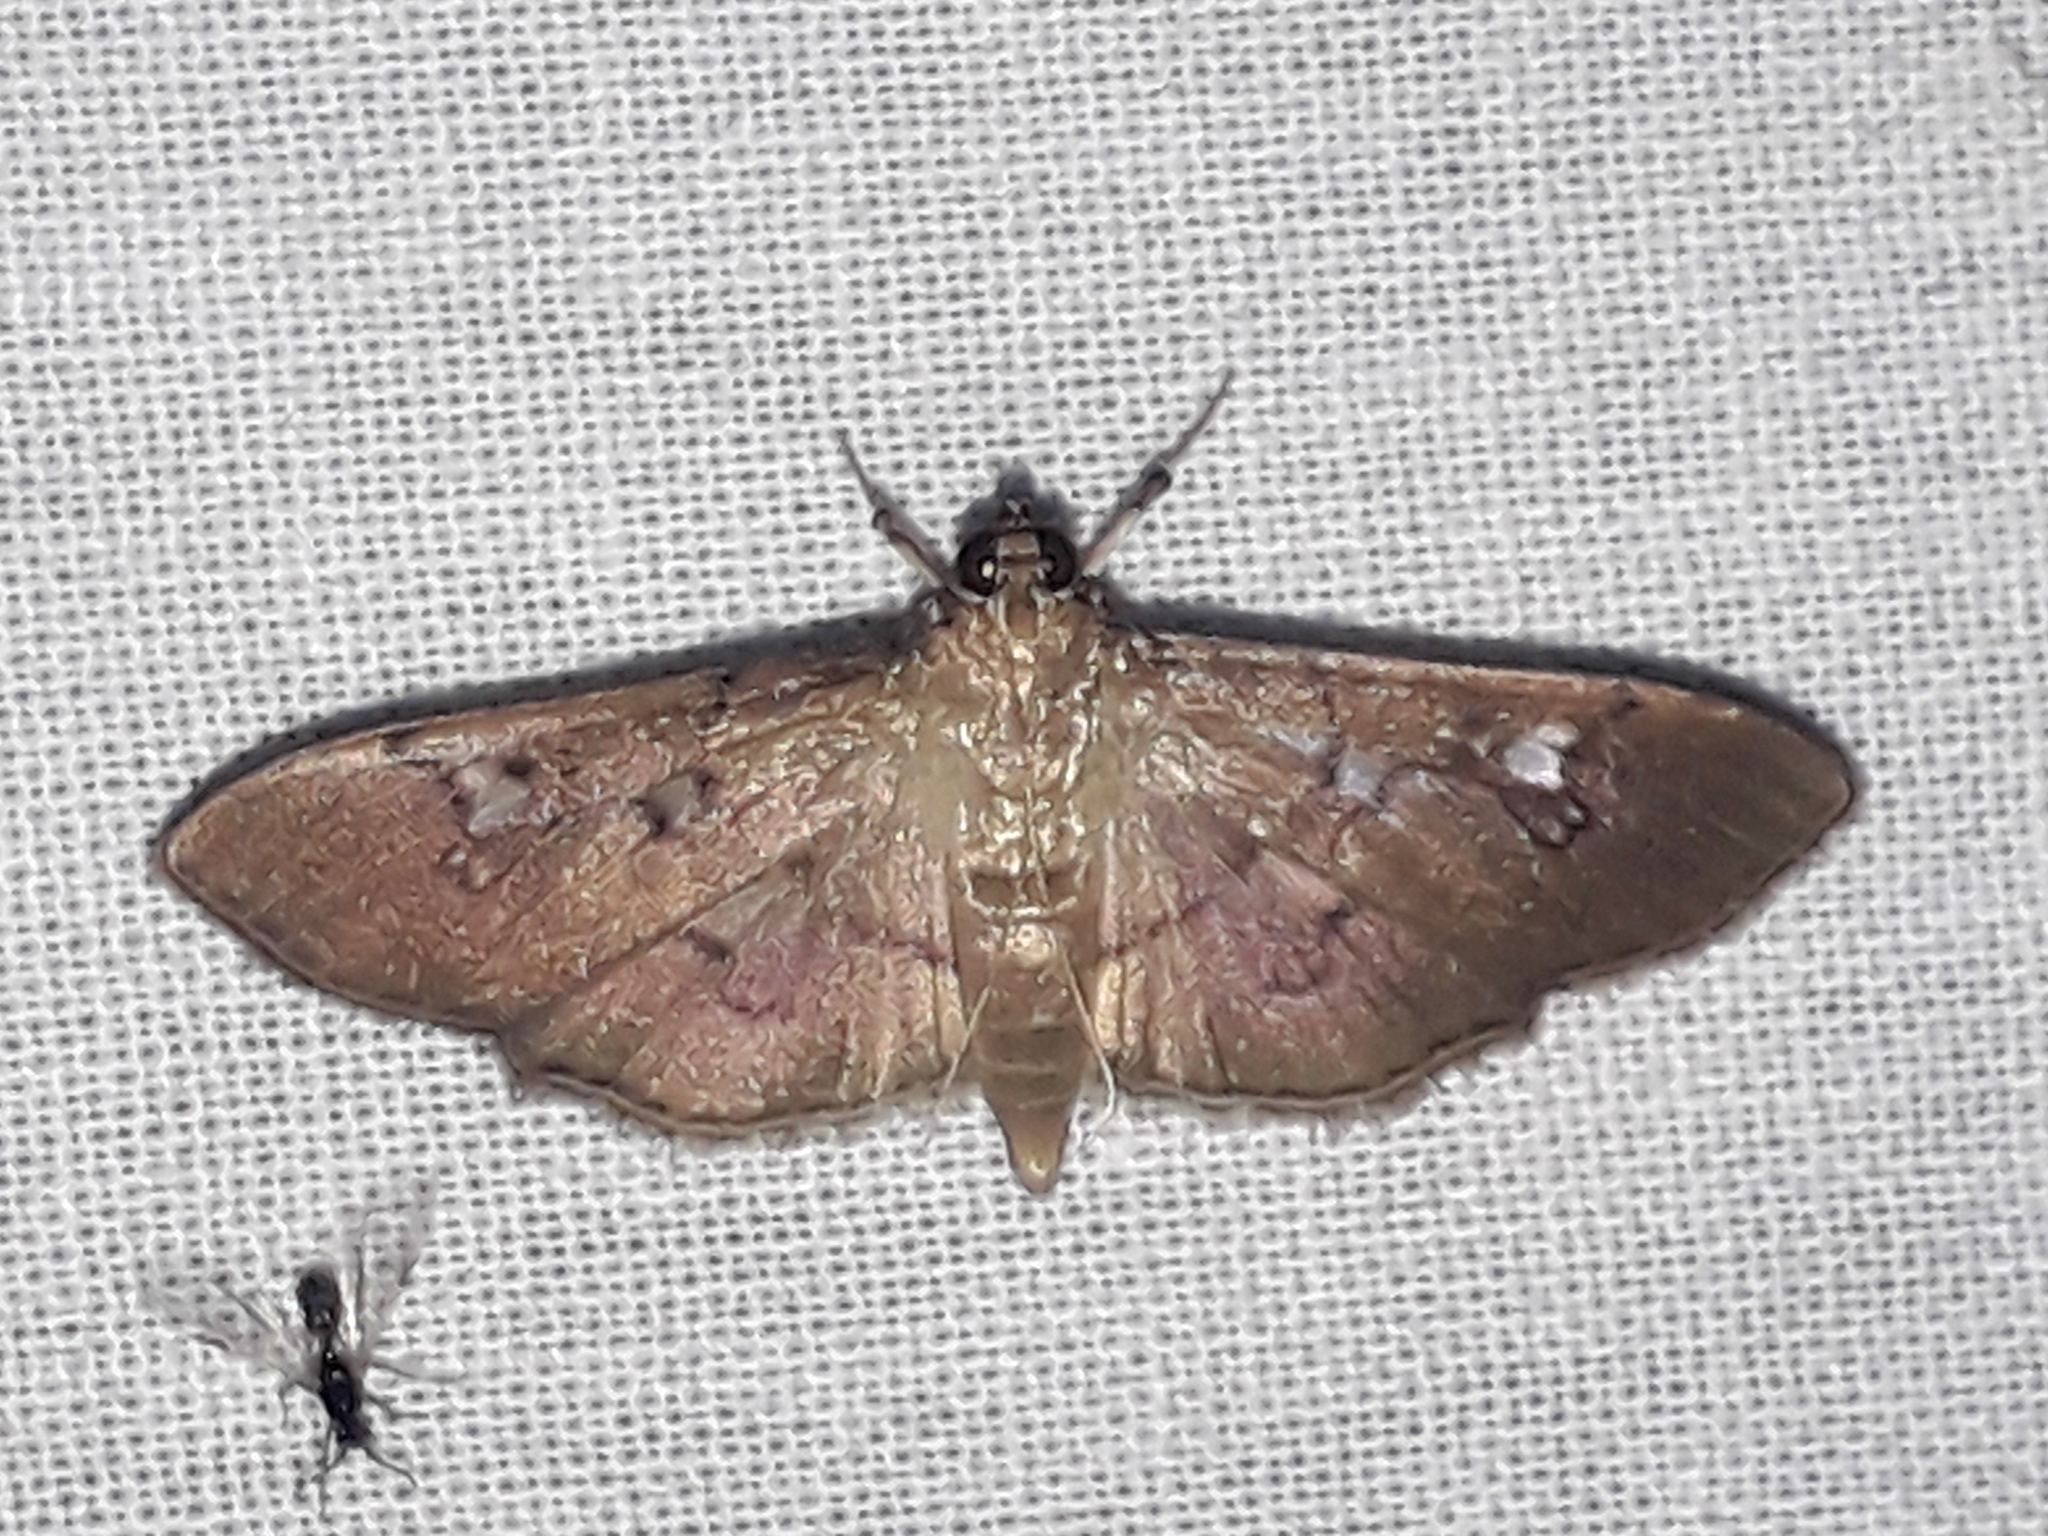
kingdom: Animalia
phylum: Arthropoda
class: Insecta
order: Lepidoptera
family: Crambidae
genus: Microthyris
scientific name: Microthyris prolongalis
